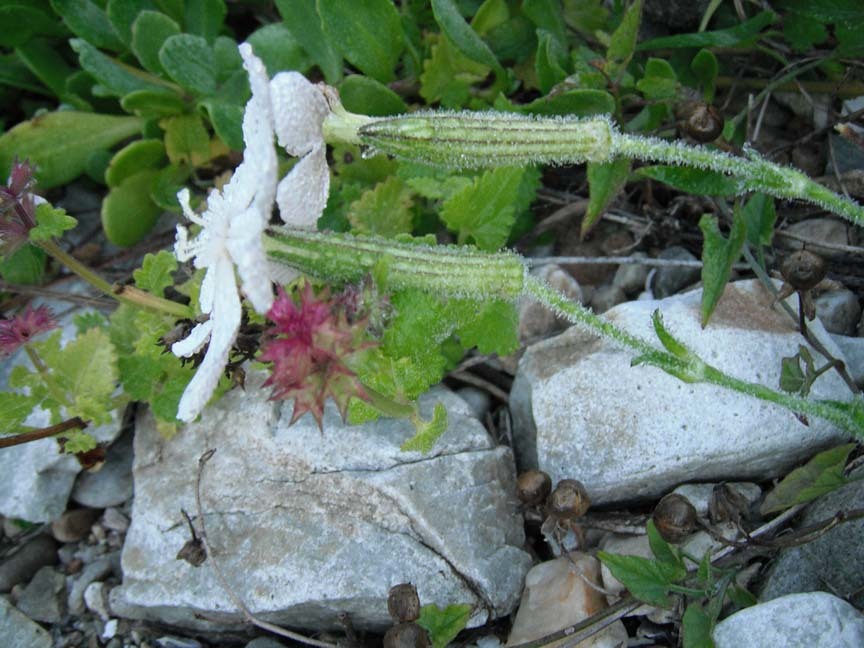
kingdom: Plantae
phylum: Tracheophyta
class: Magnoliopsida
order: Caryophyllales
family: Caryophyllaceae
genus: Silene
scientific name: Silene undulata
